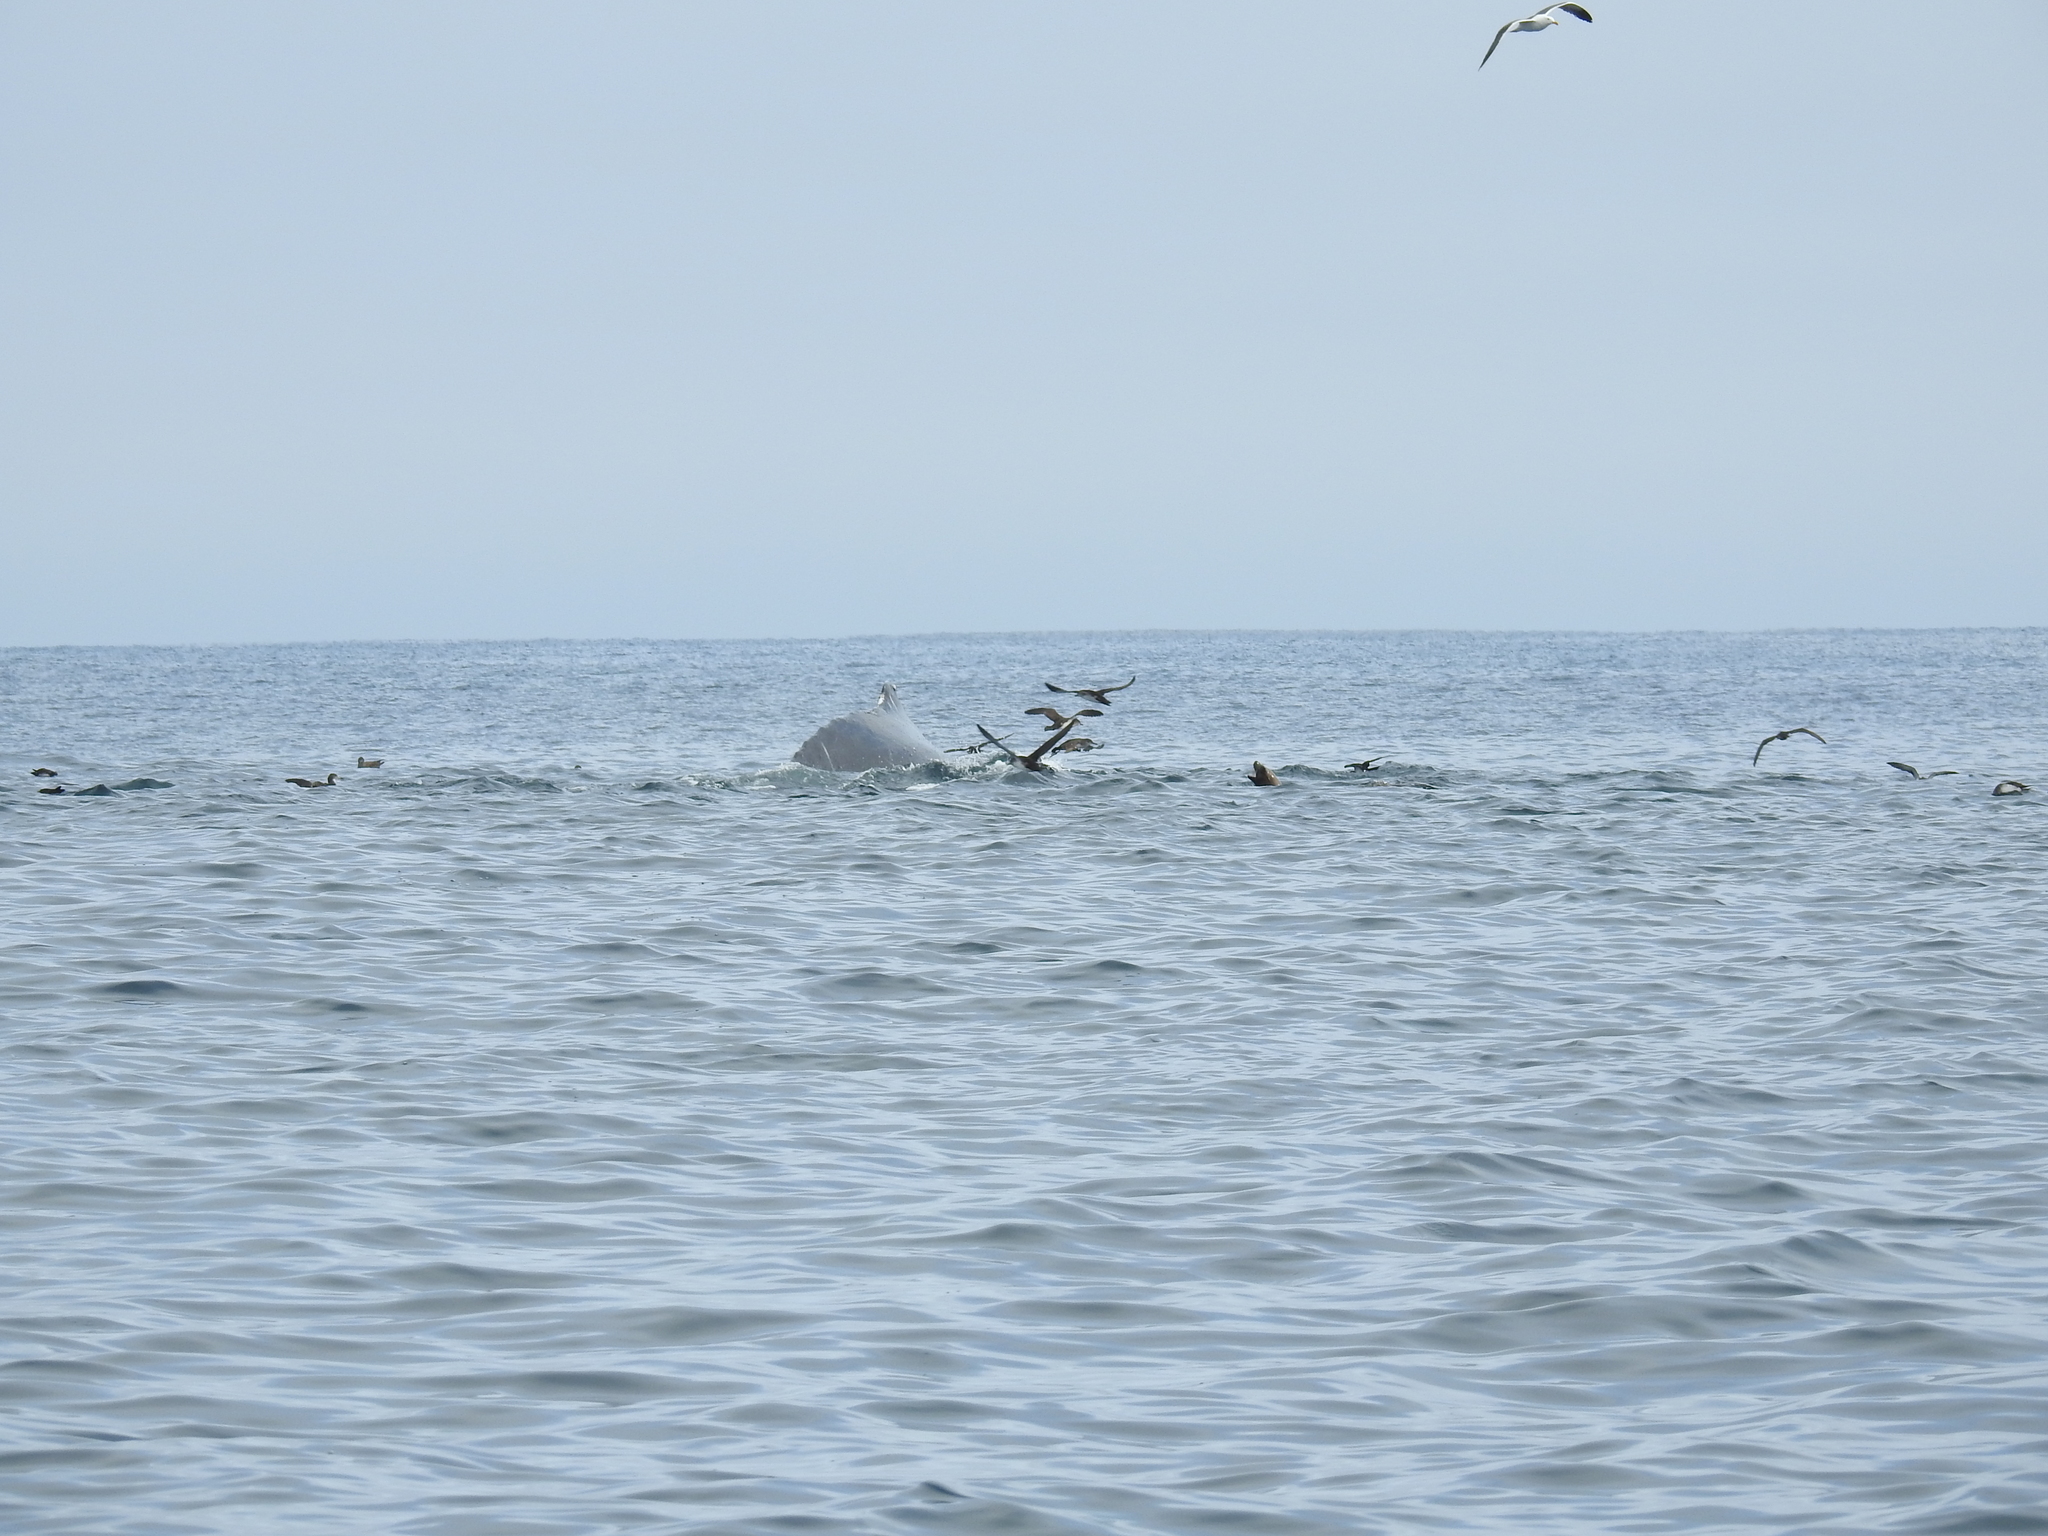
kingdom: Animalia
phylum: Chordata
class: Mammalia
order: Cetacea
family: Balaenopteridae
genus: Megaptera
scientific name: Megaptera novaeangliae
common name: Humpback whale
